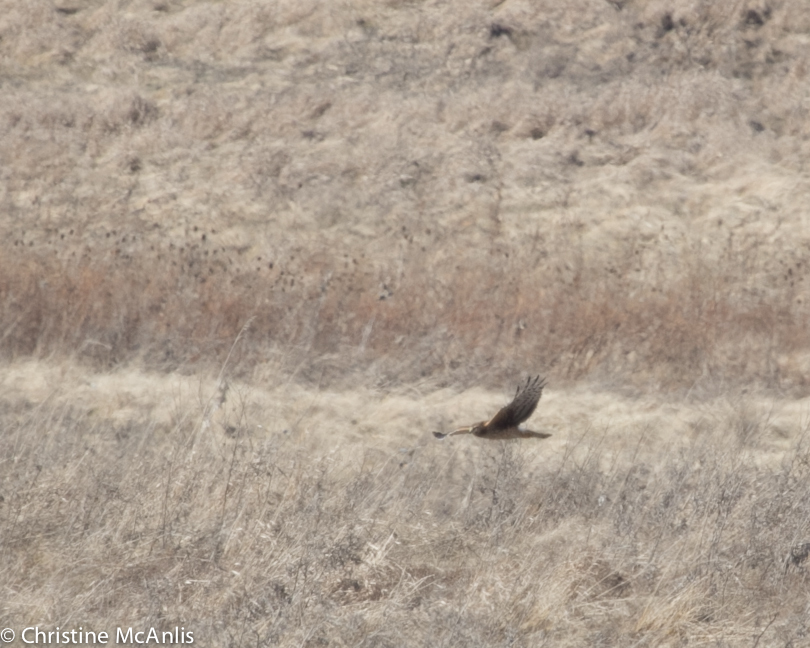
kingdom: Animalia
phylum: Chordata
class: Aves
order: Accipitriformes
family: Accipitridae
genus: Circus
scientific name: Circus cyaneus
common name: Hen harrier
